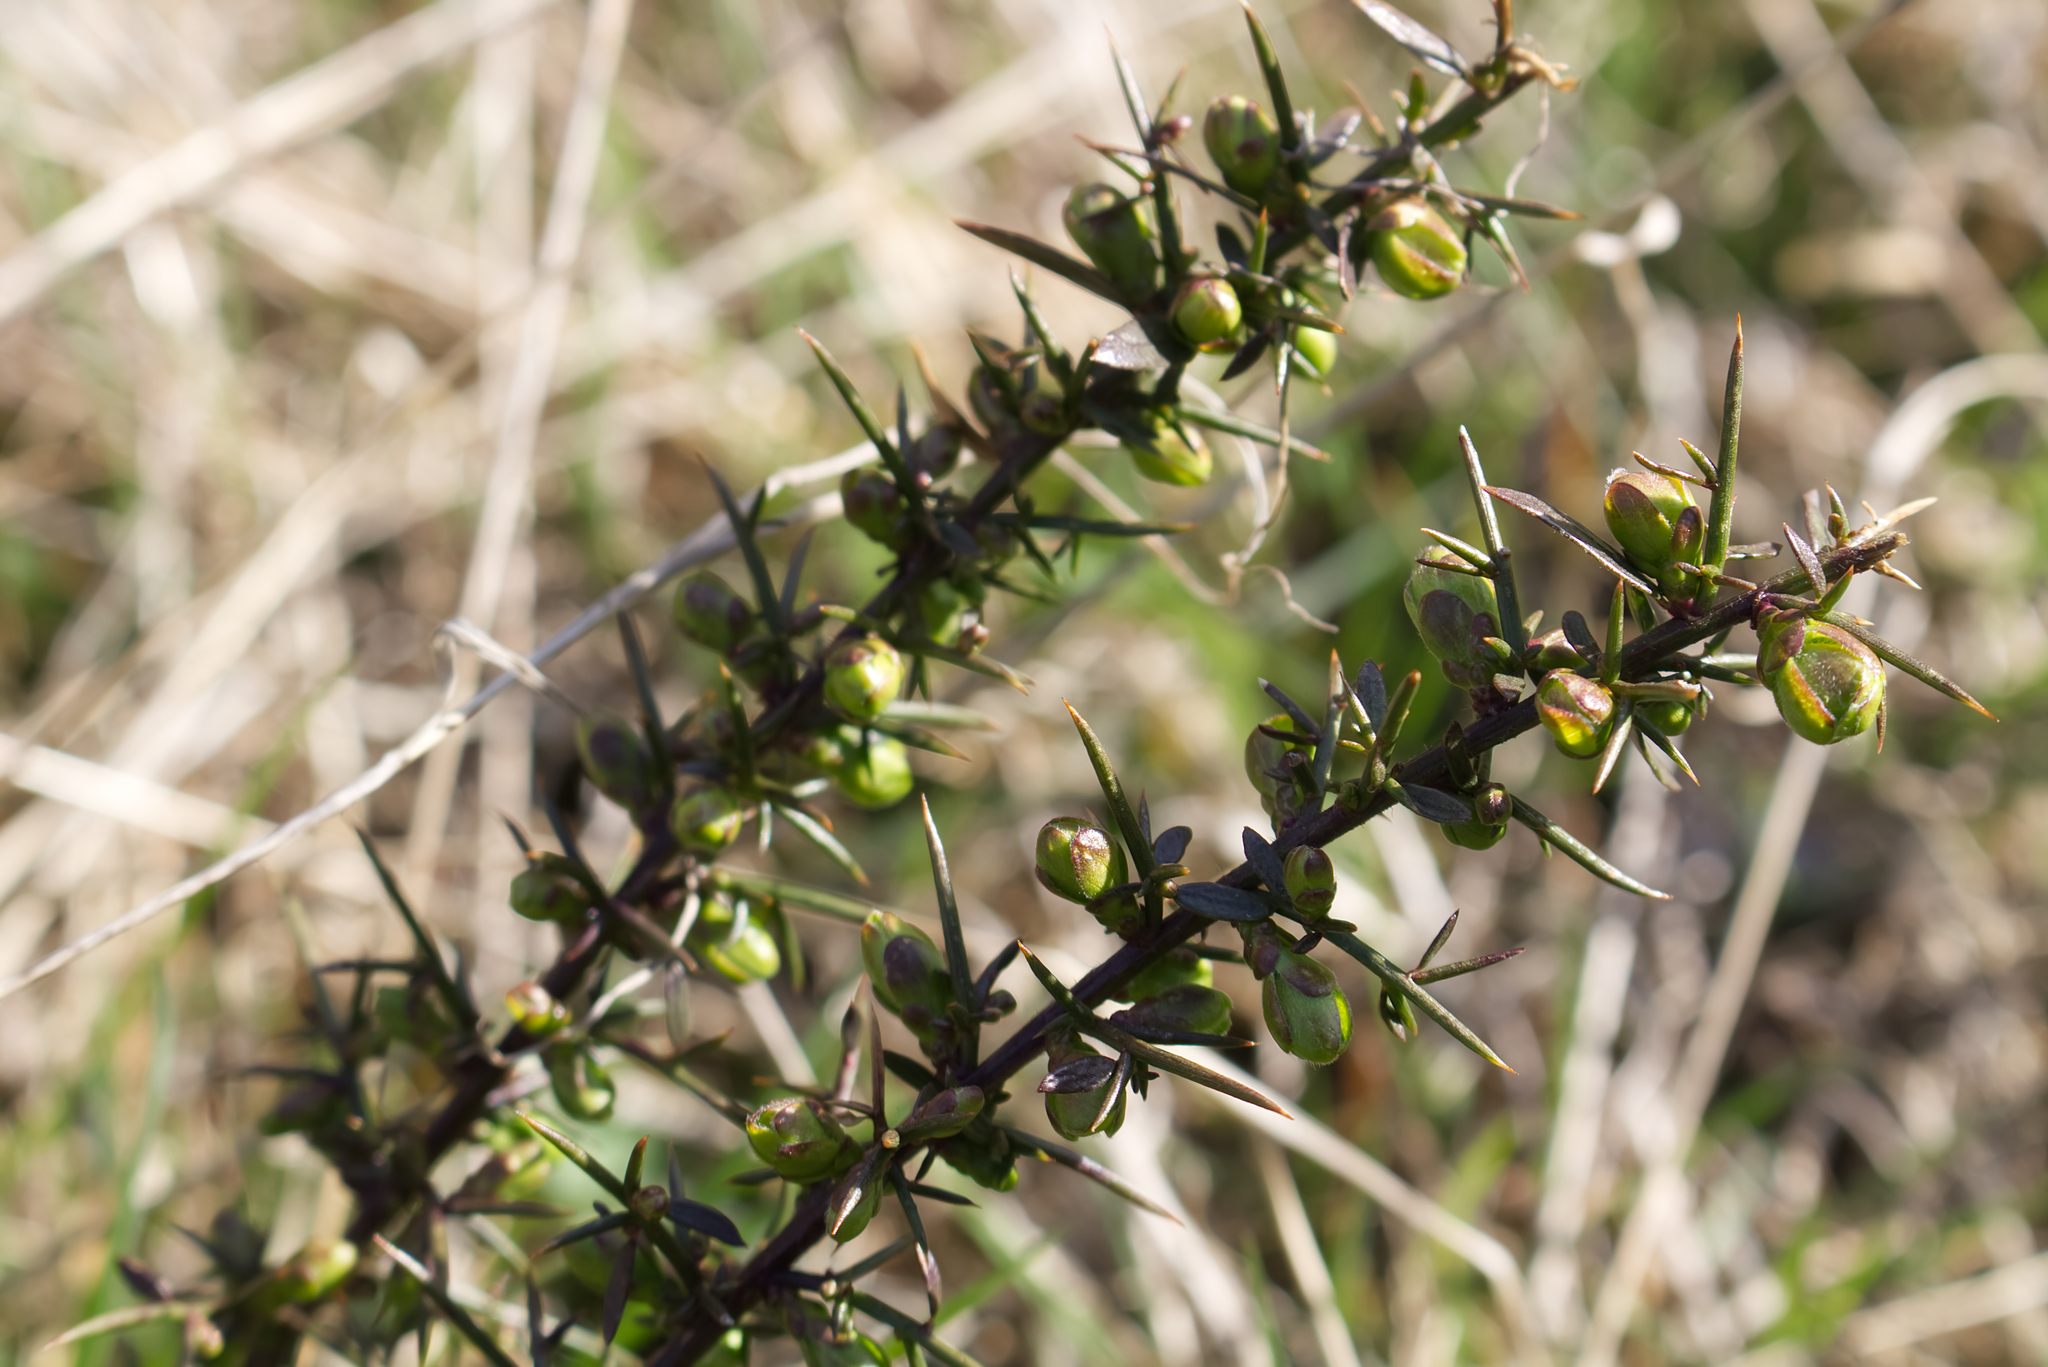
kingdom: Plantae
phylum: Tracheophyta
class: Magnoliopsida
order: Fabales
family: Fabaceae
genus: Genista
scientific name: Genista germanica
